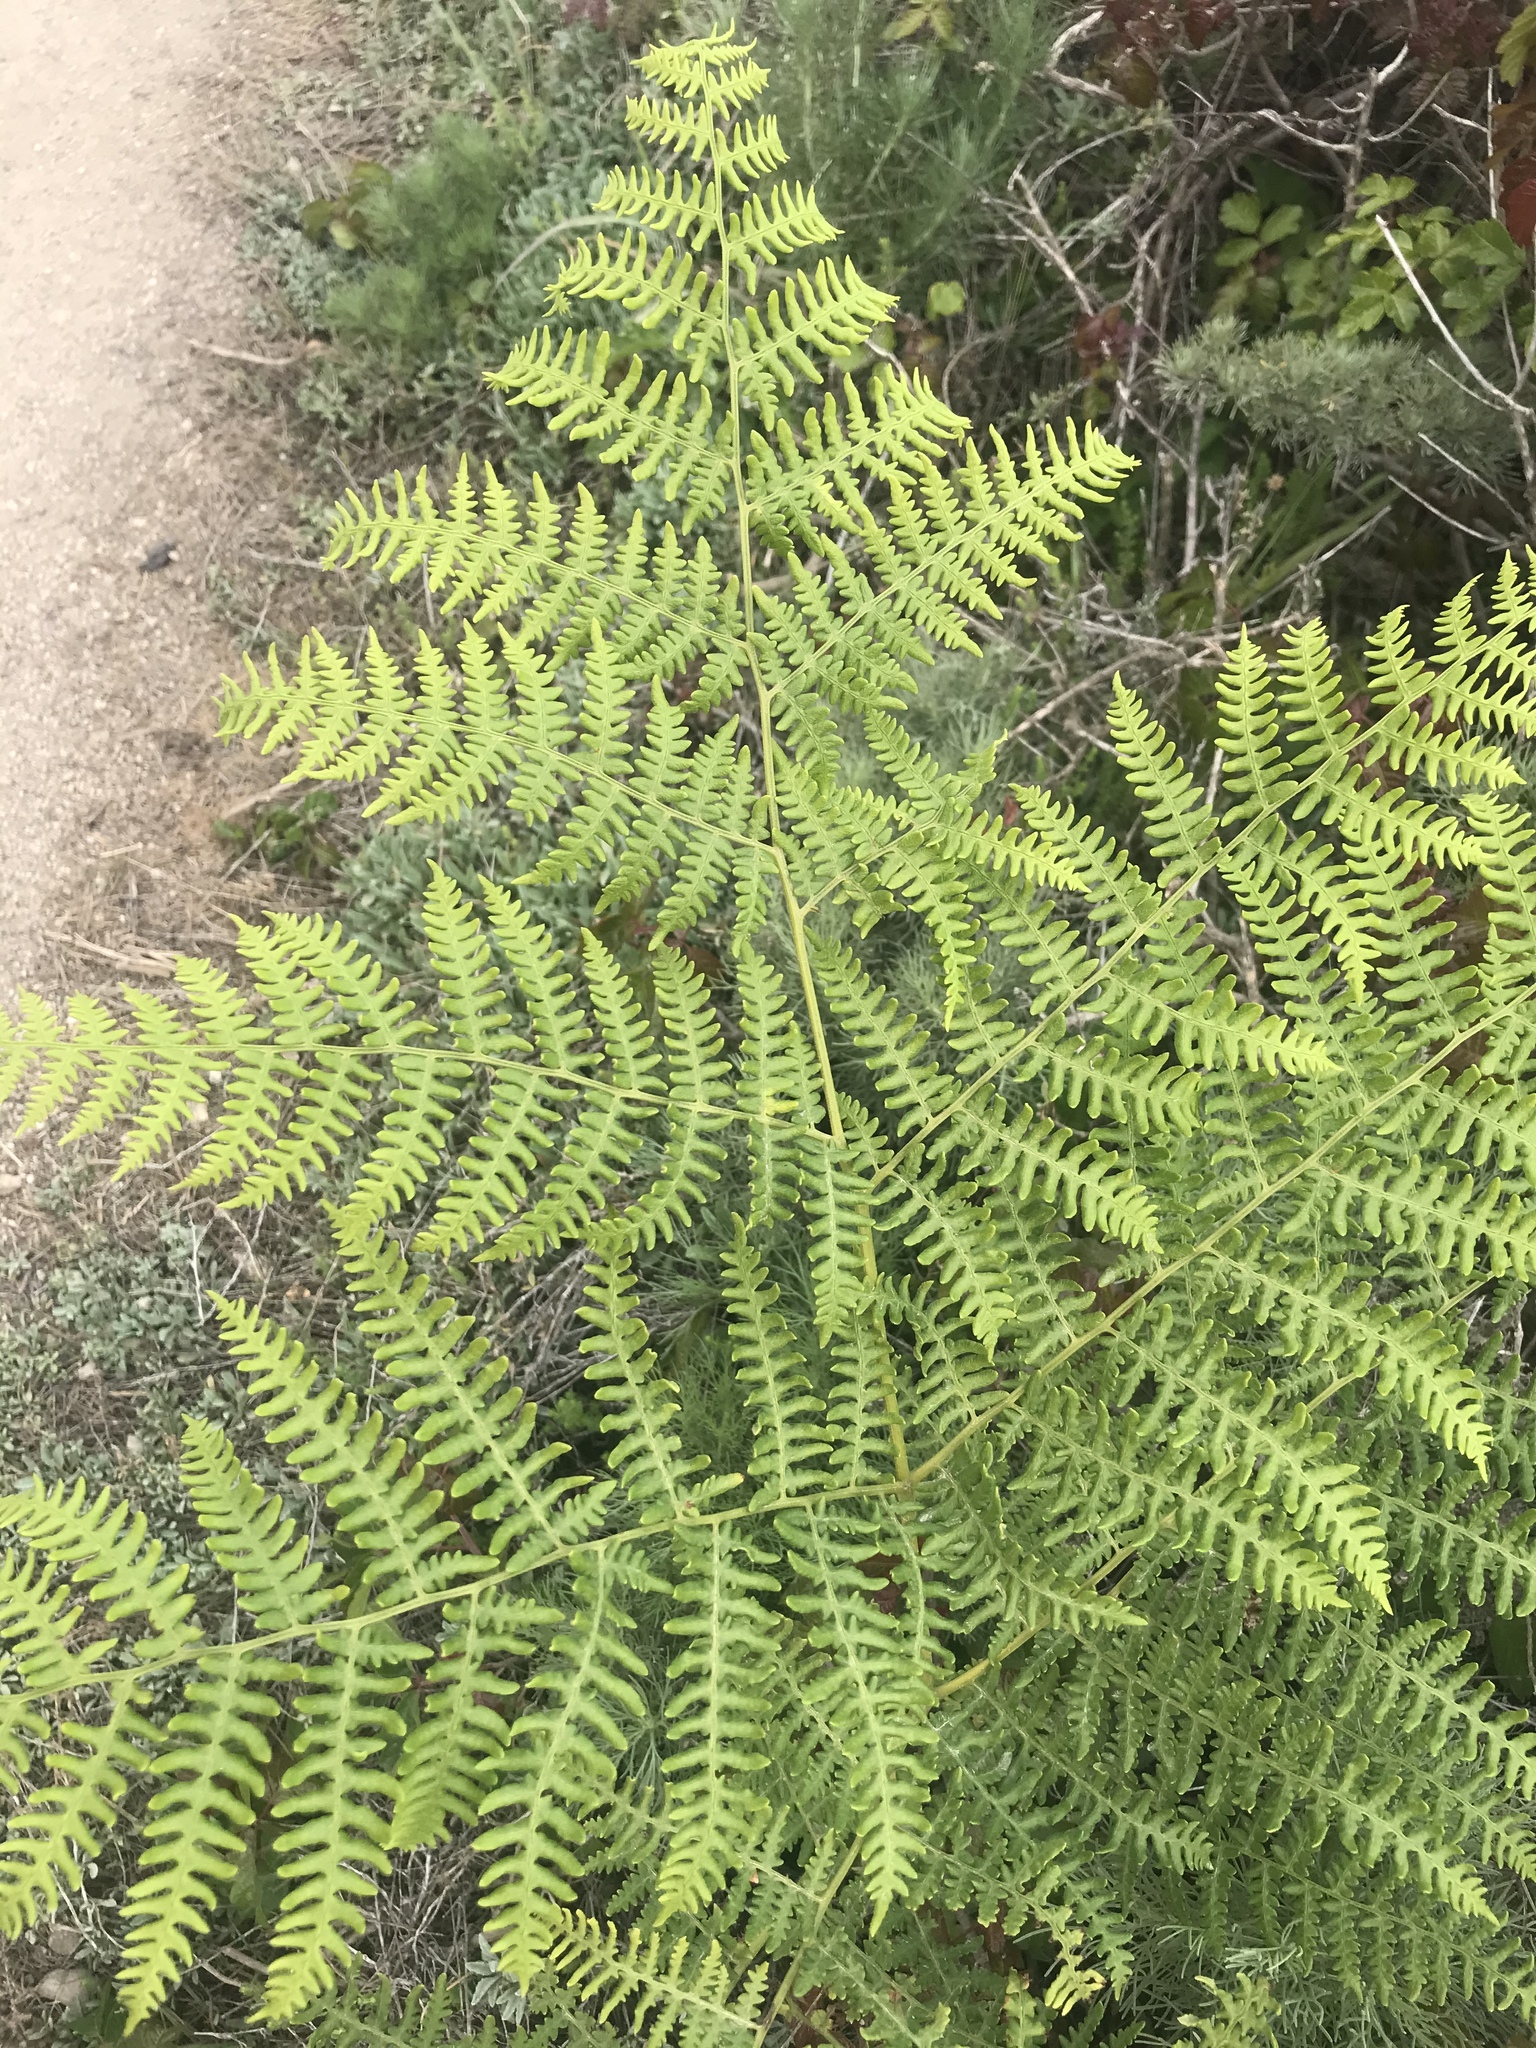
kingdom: Plantae
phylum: Tracheophyta
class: Polypodiopsida
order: Polypodiales
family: Dennstaedtiaceae
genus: Pteridium
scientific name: Pteridium aquilinum
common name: Bracken
